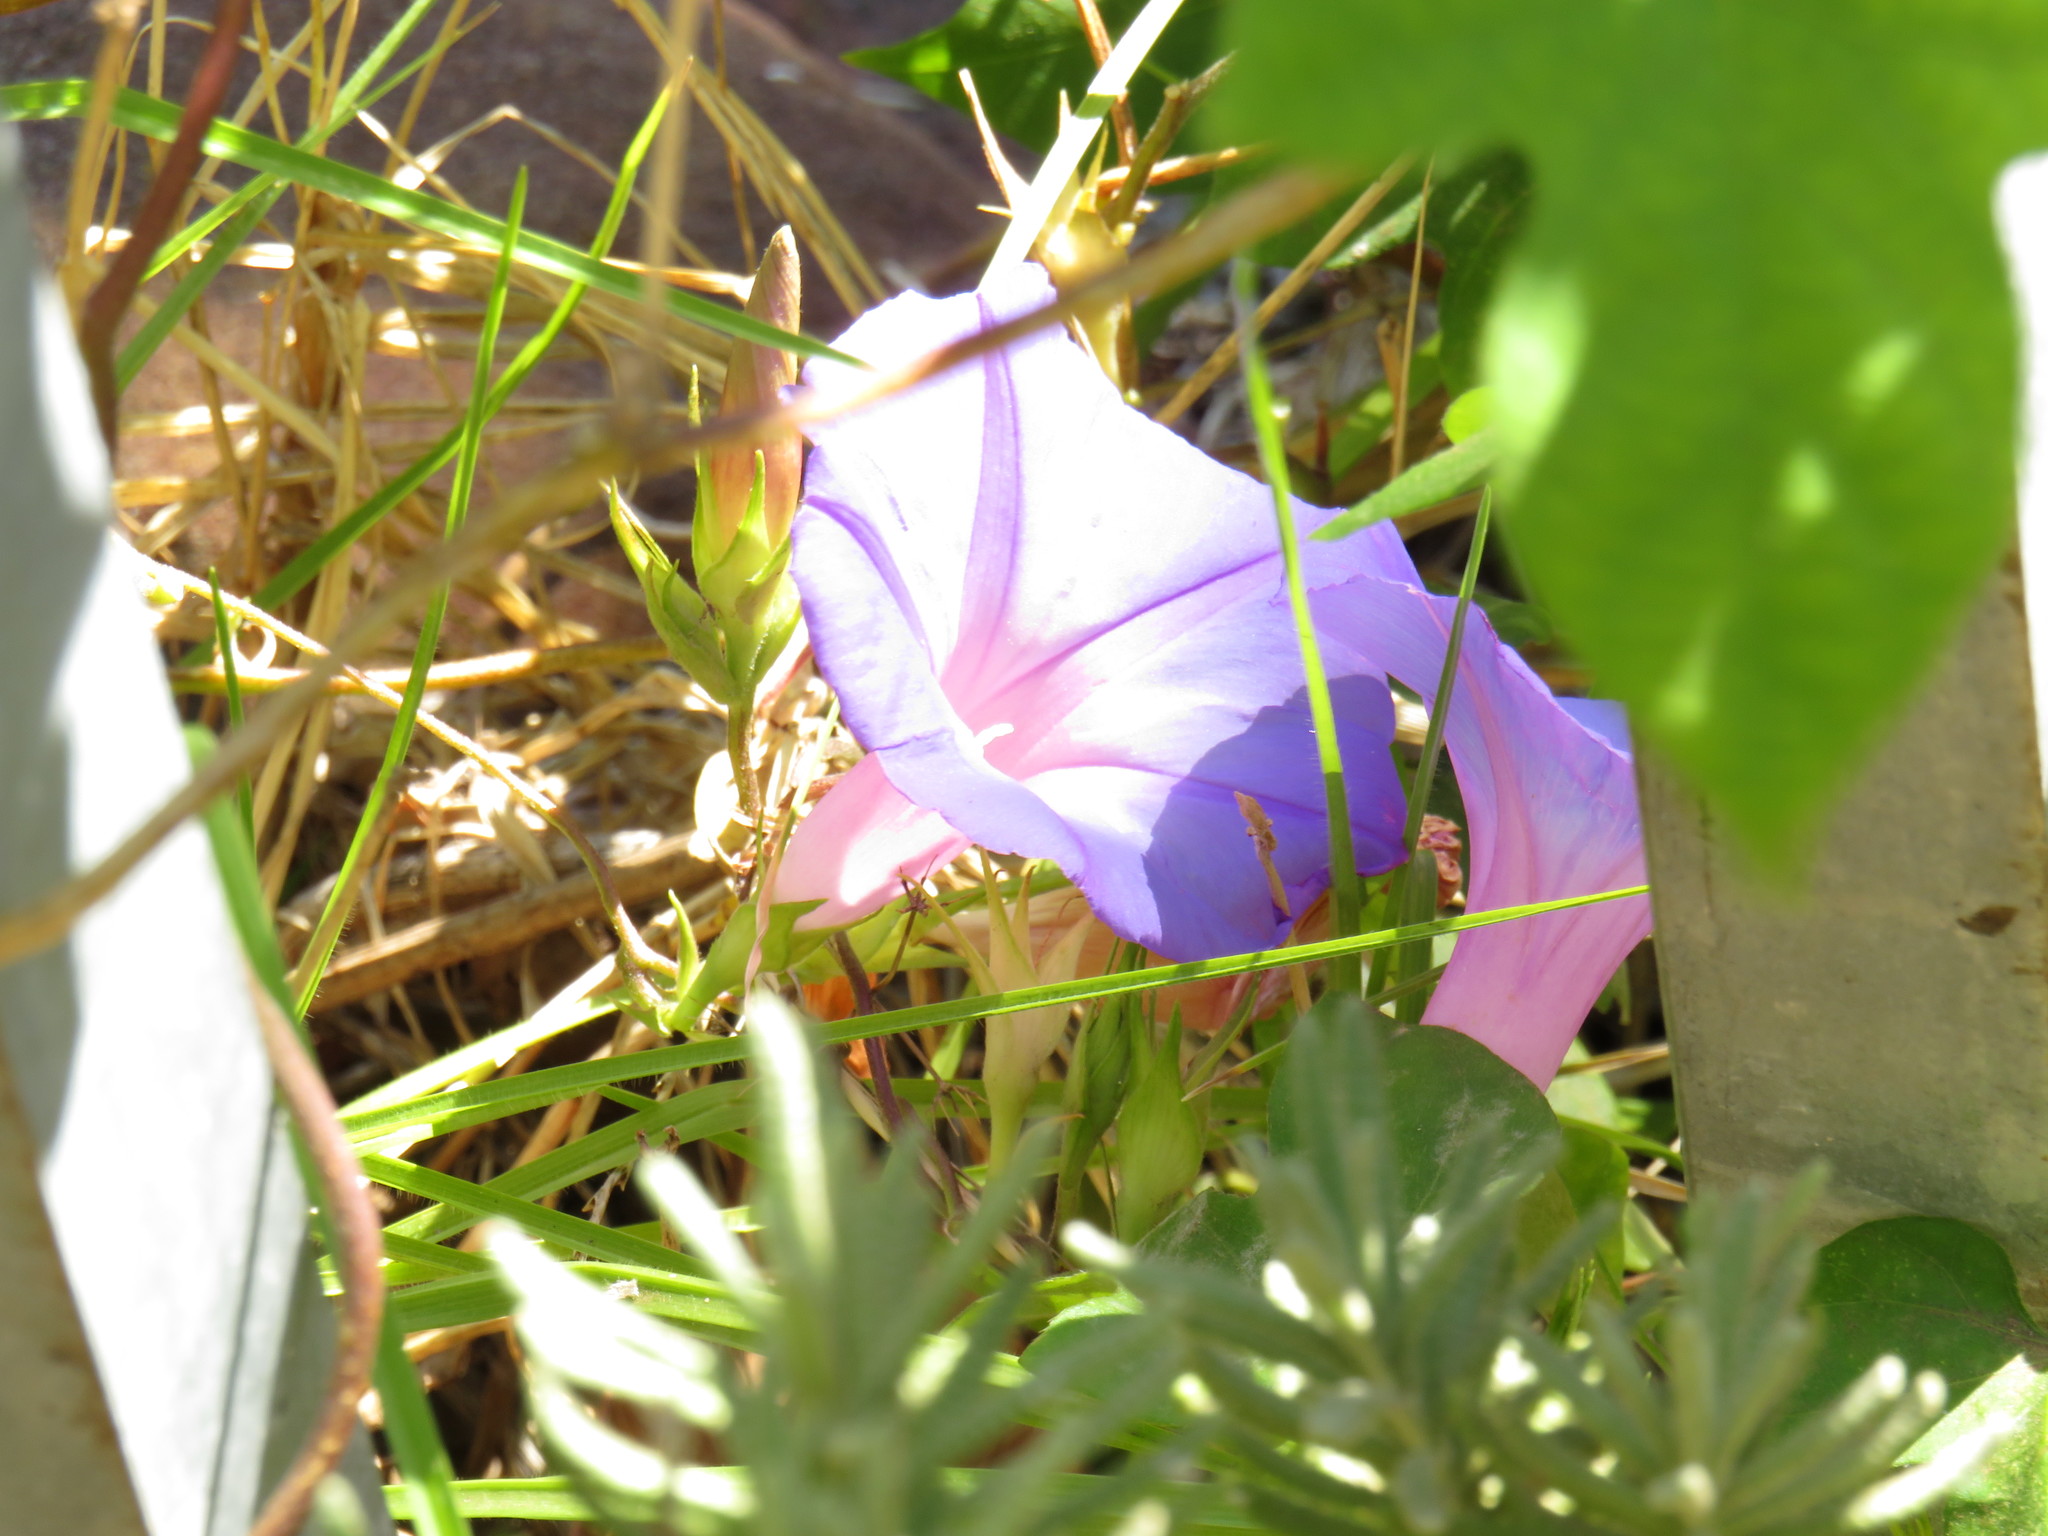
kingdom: Plantae
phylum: Tracheophyta
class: Magnoliopsida
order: Solanales
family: Convolvulaceae
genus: Ipomoea
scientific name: Ipomoea indica
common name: Blue dawnflower
